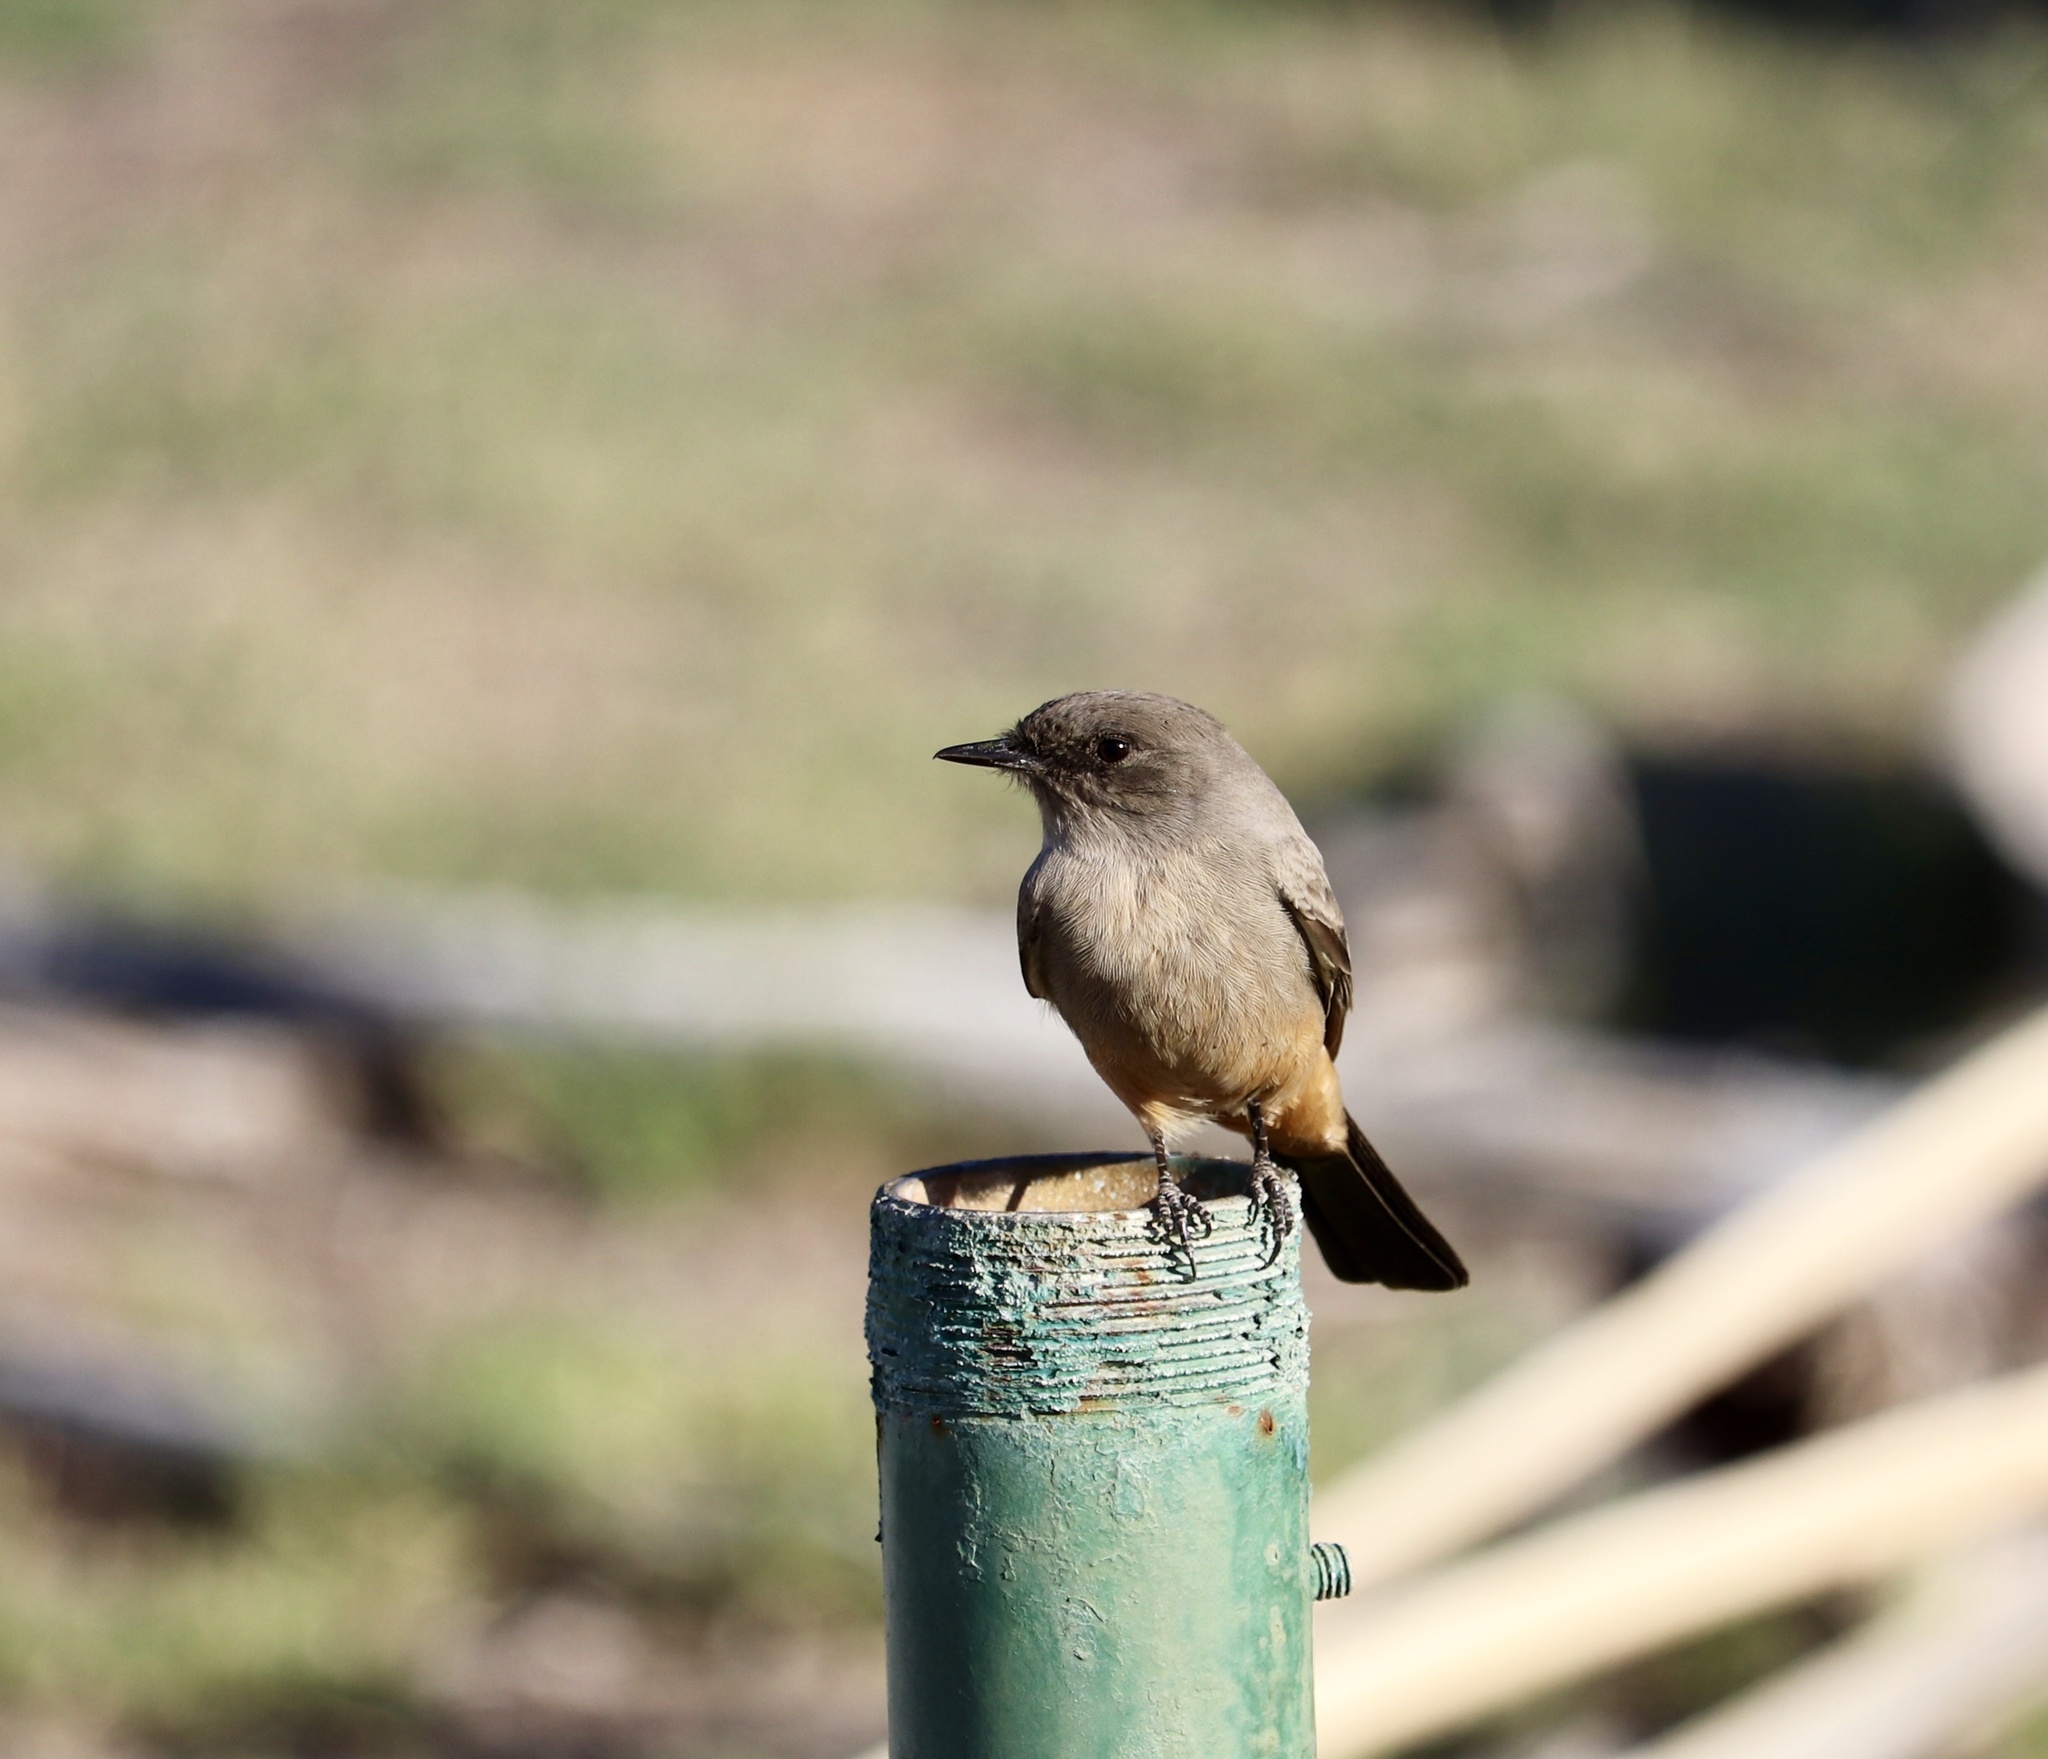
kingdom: Animalia
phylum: Chordata
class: Aves
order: Passeriformes
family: Tyrannidae
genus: Sayornis
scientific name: Sayornis saya
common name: Say's phoebe
